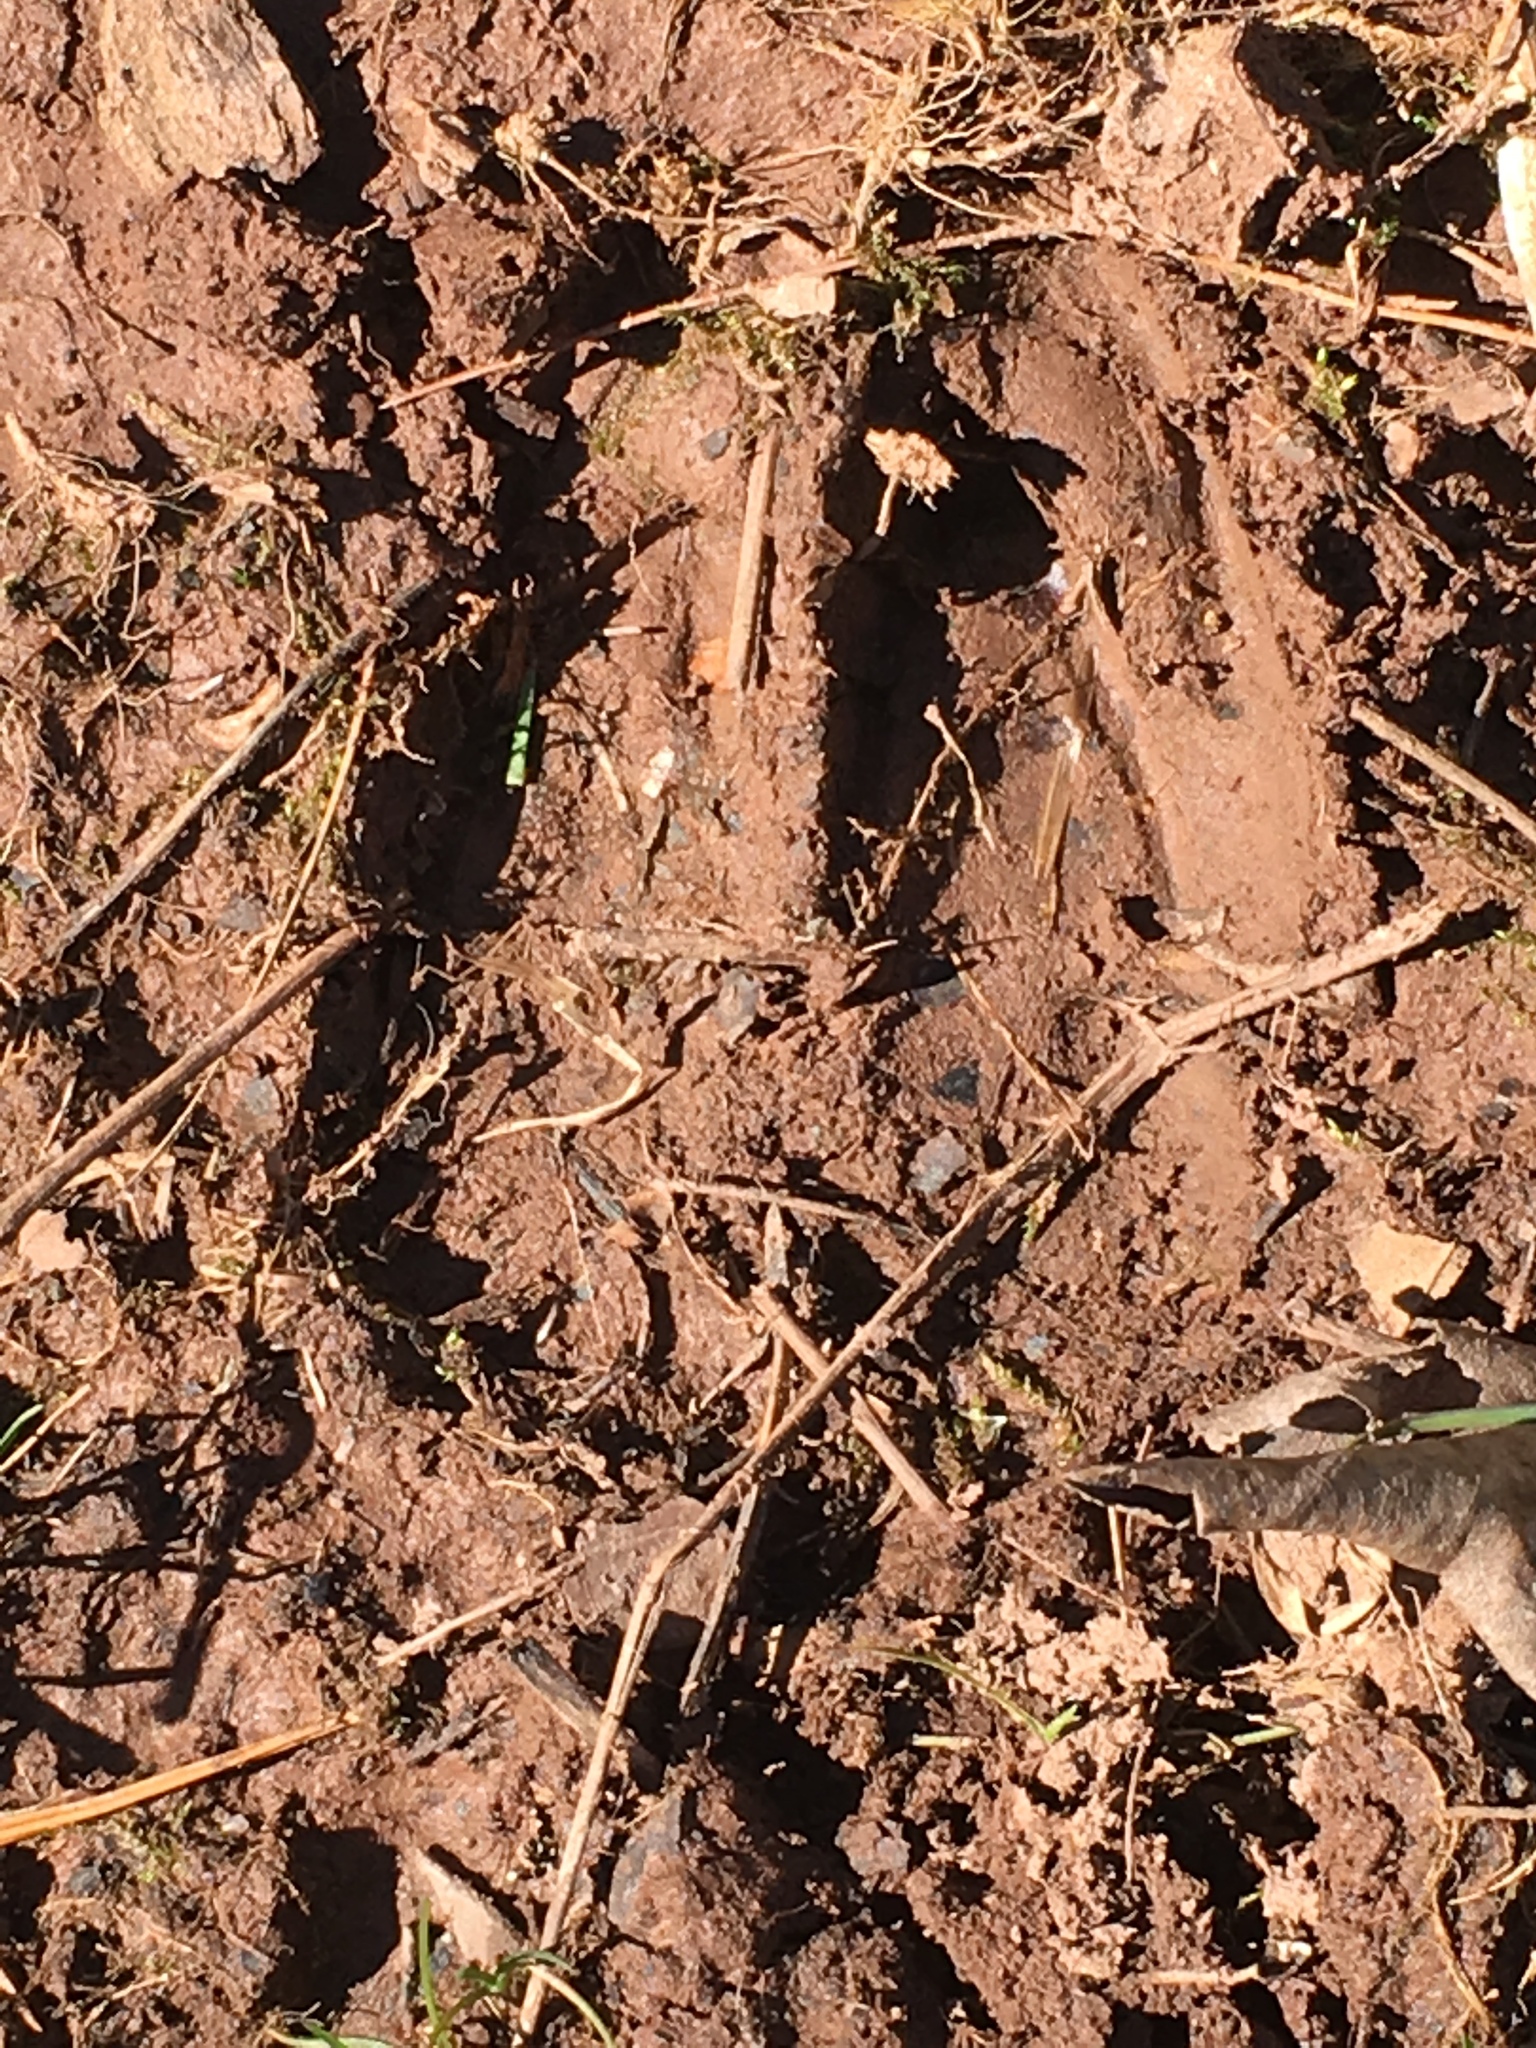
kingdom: Animalia
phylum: Chordata
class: Mammalia
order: Artiodactyla
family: Cervidae
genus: Odocoileus
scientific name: Odocoileus virginianus
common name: White-tailed deer
